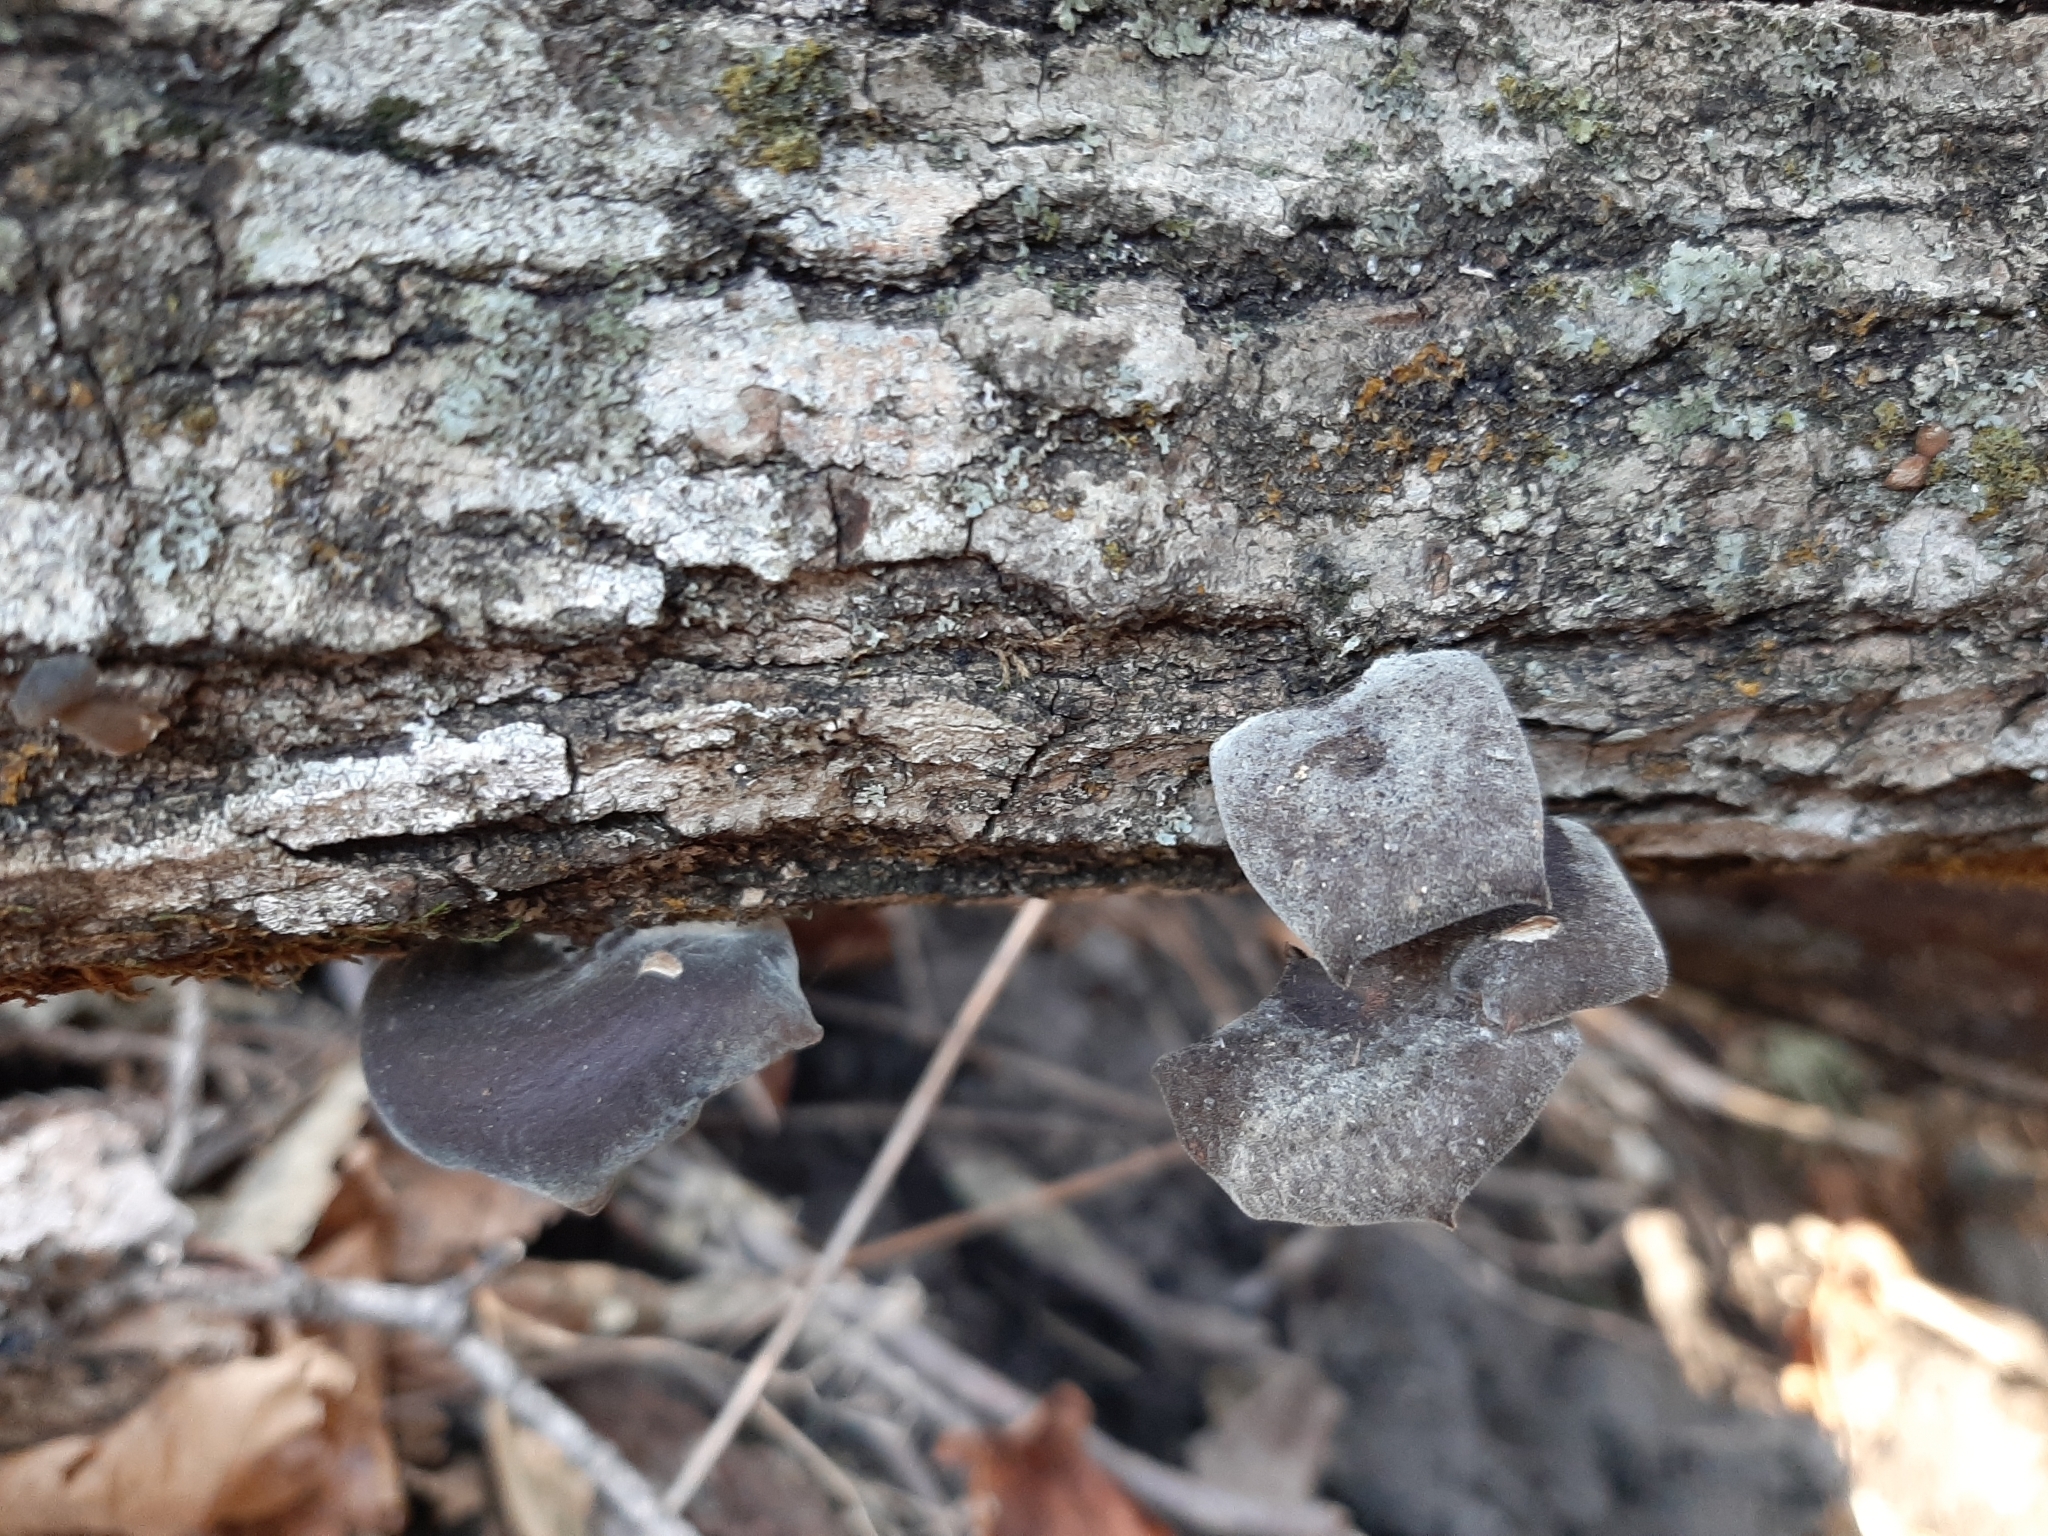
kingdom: Fungi
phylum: Basidiomycota
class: Agaricomycetes
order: Polyporales
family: Polyporaceae
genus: Lentinus
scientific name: Lentinus brumalis
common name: Winter polypore
